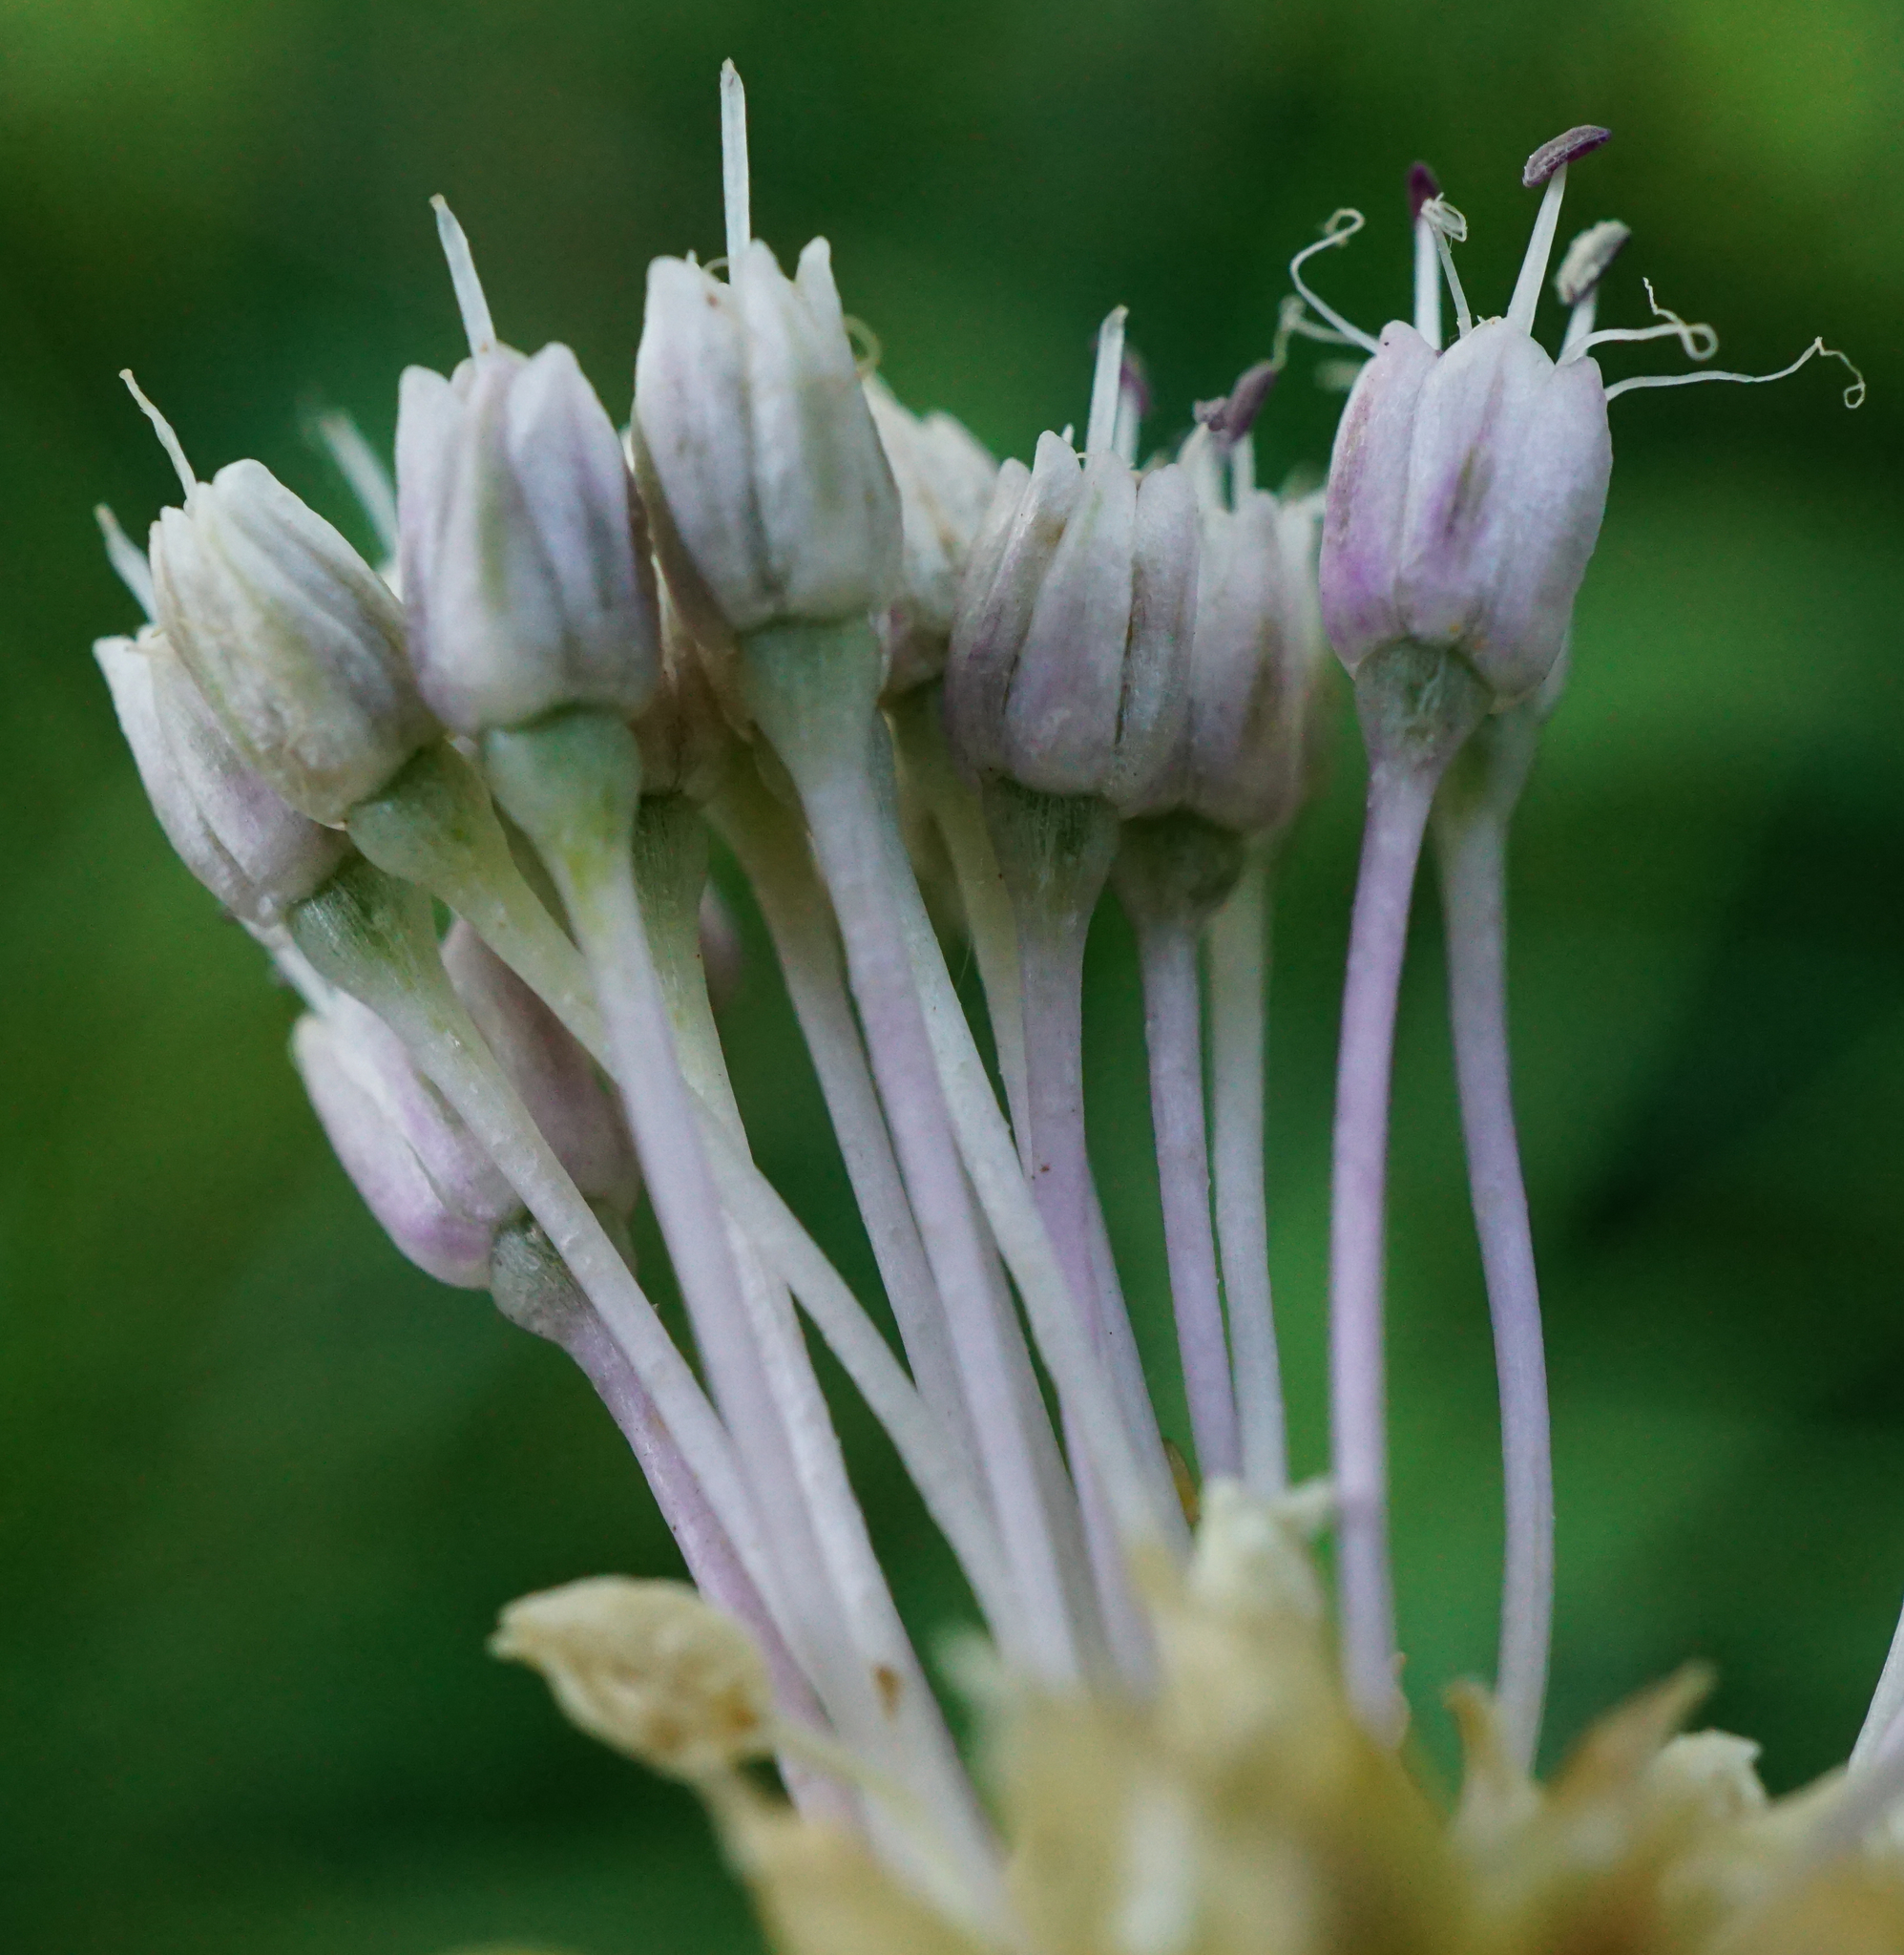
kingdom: Plantae
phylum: Tracheophyta
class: Liliopsida
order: Asparagales
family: Amaryllidaceae
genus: Allium
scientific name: Allium vineale
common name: Crow garlic
